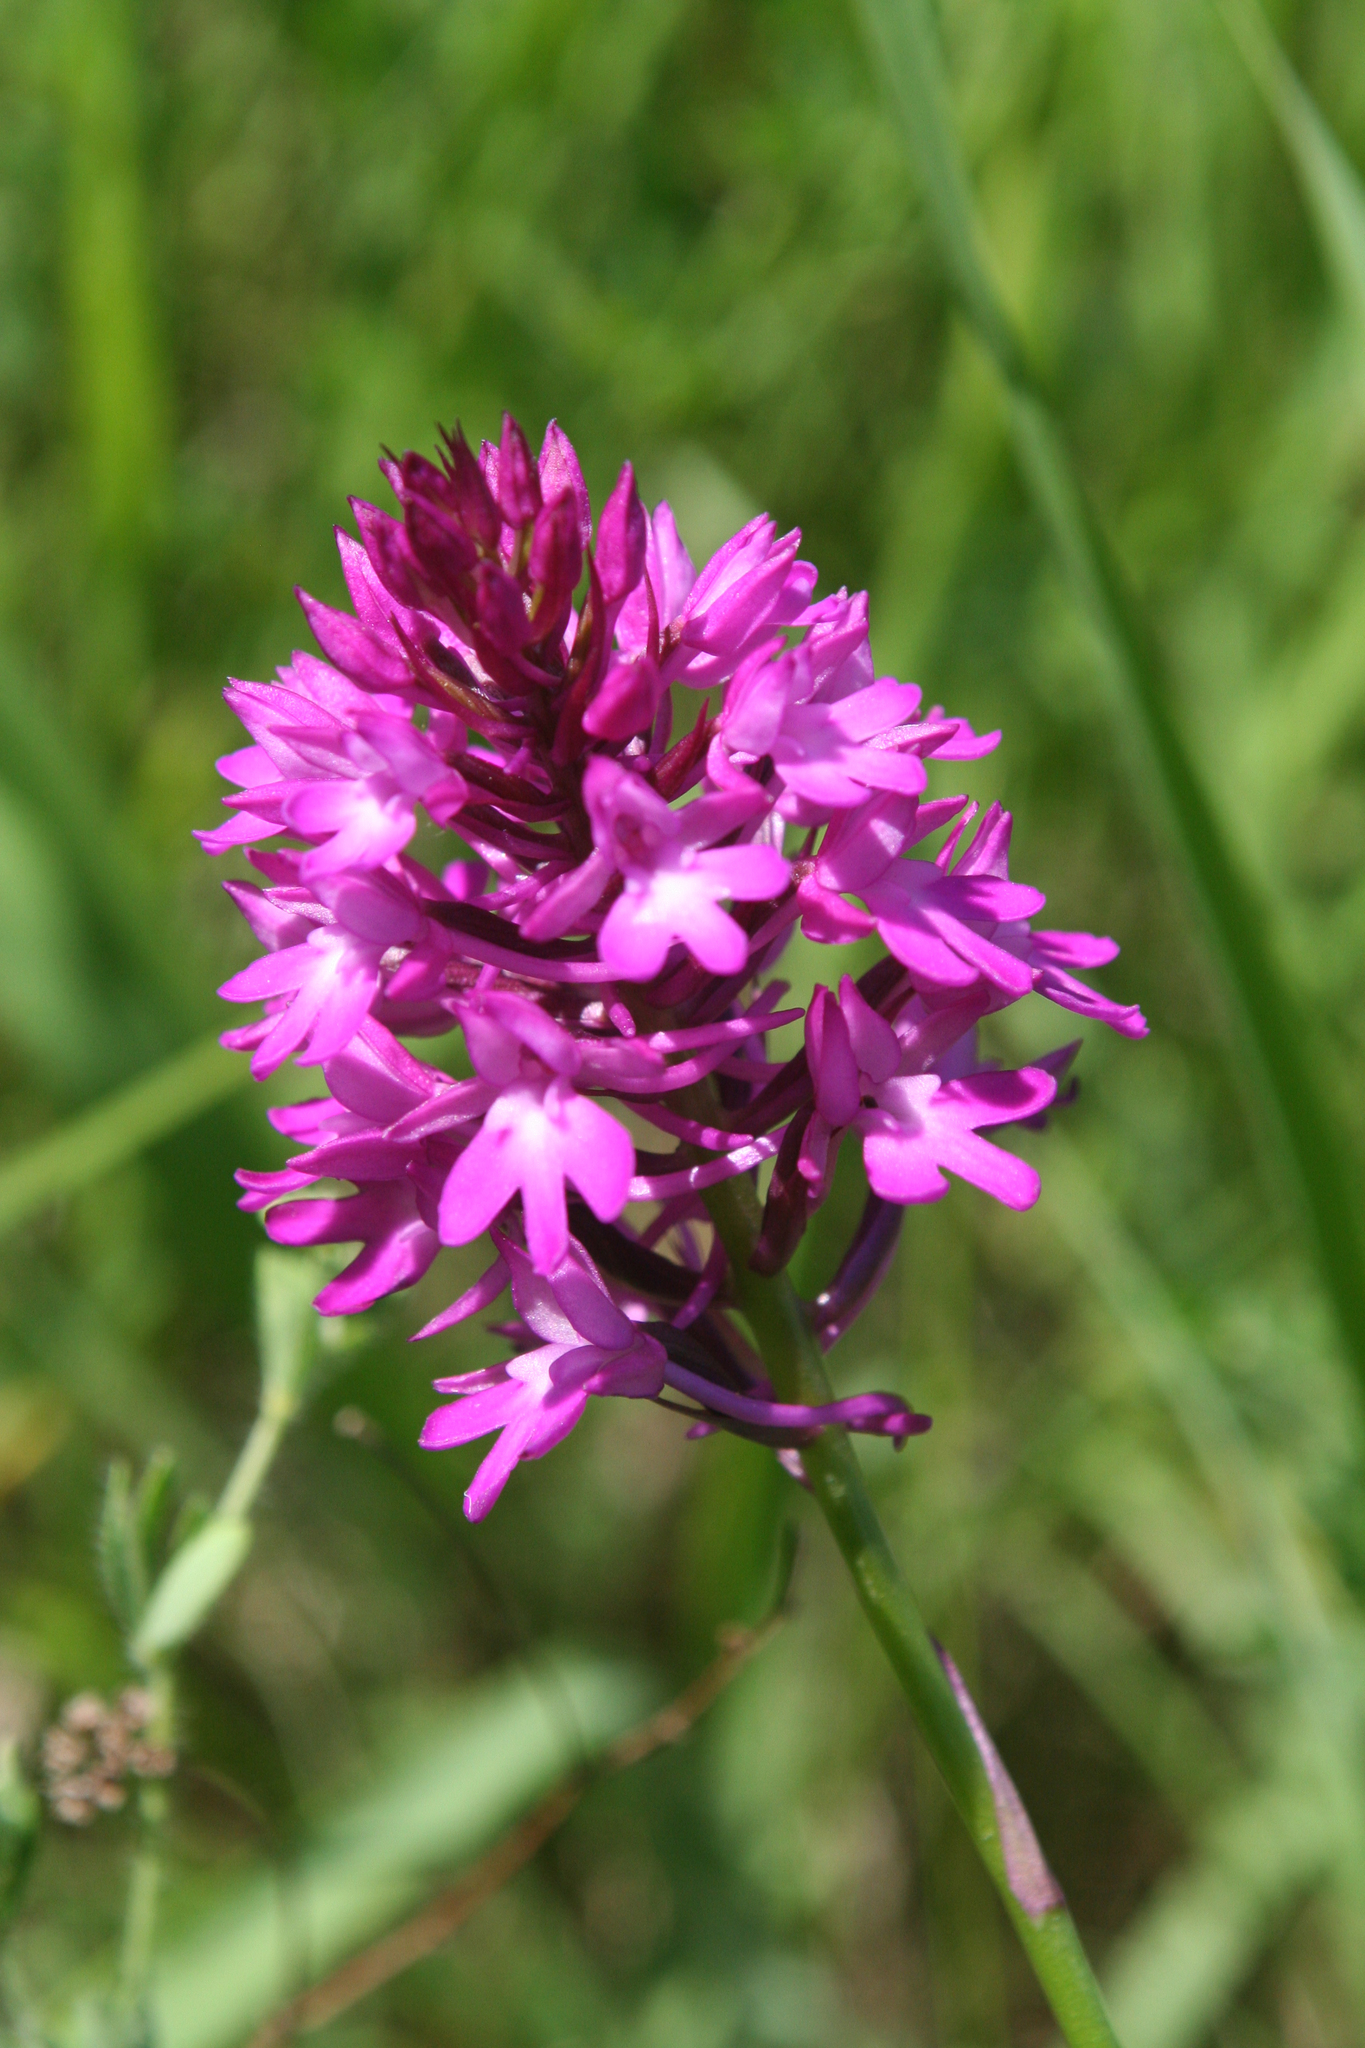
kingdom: Plantae
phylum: Tracheophyta
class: Liliopsida
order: Asparagales
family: Orchidaceae
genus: Anacamptis
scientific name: Anacamptis pyramidalis
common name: Pyramidal orchid
